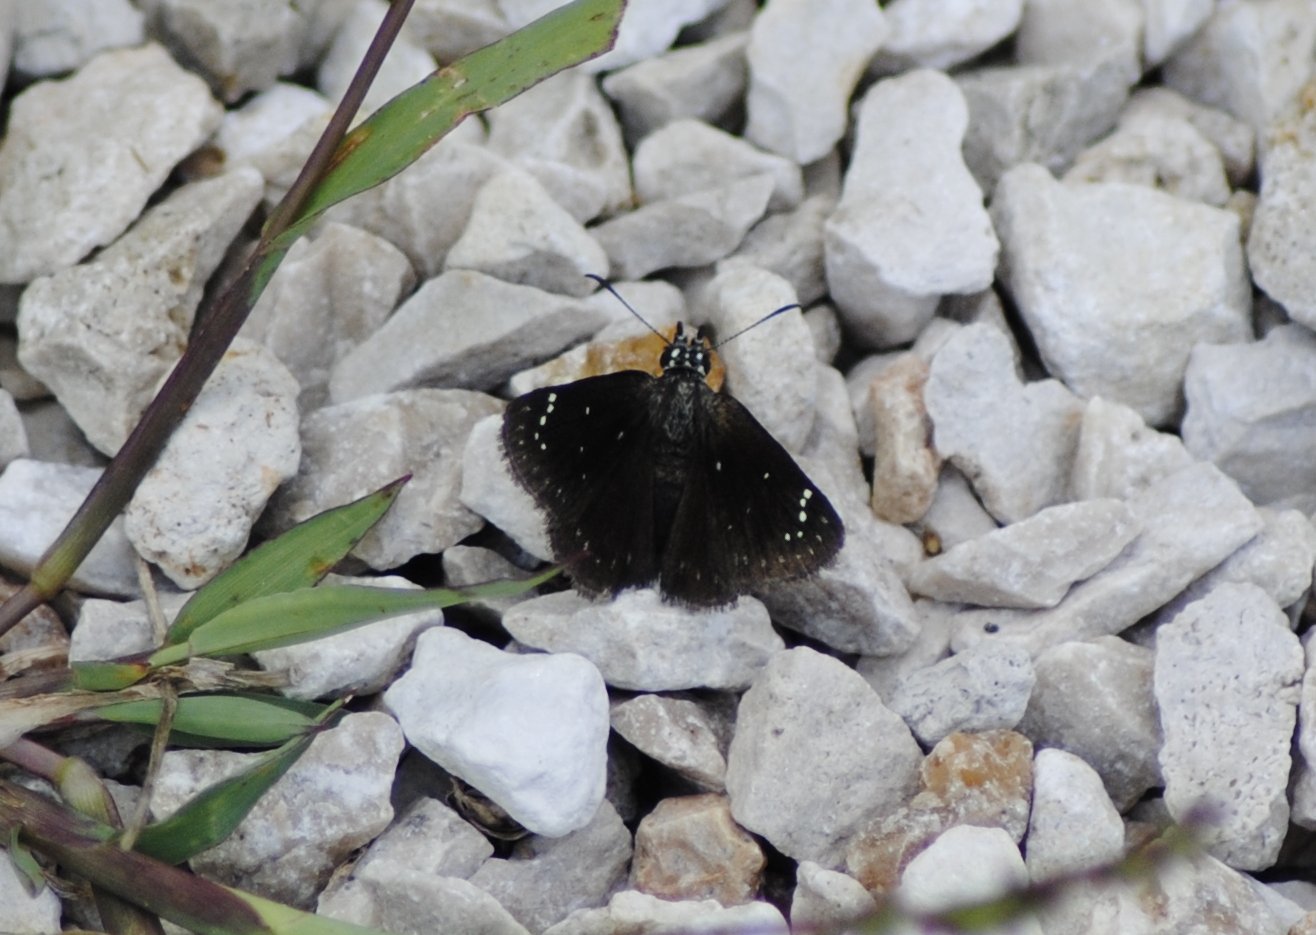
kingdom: Animalia
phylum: Arthropoda
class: Insecta
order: Lepidoptera
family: Hesperiidae
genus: Pholisora
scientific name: Pholisora catullus
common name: Common sootywing
